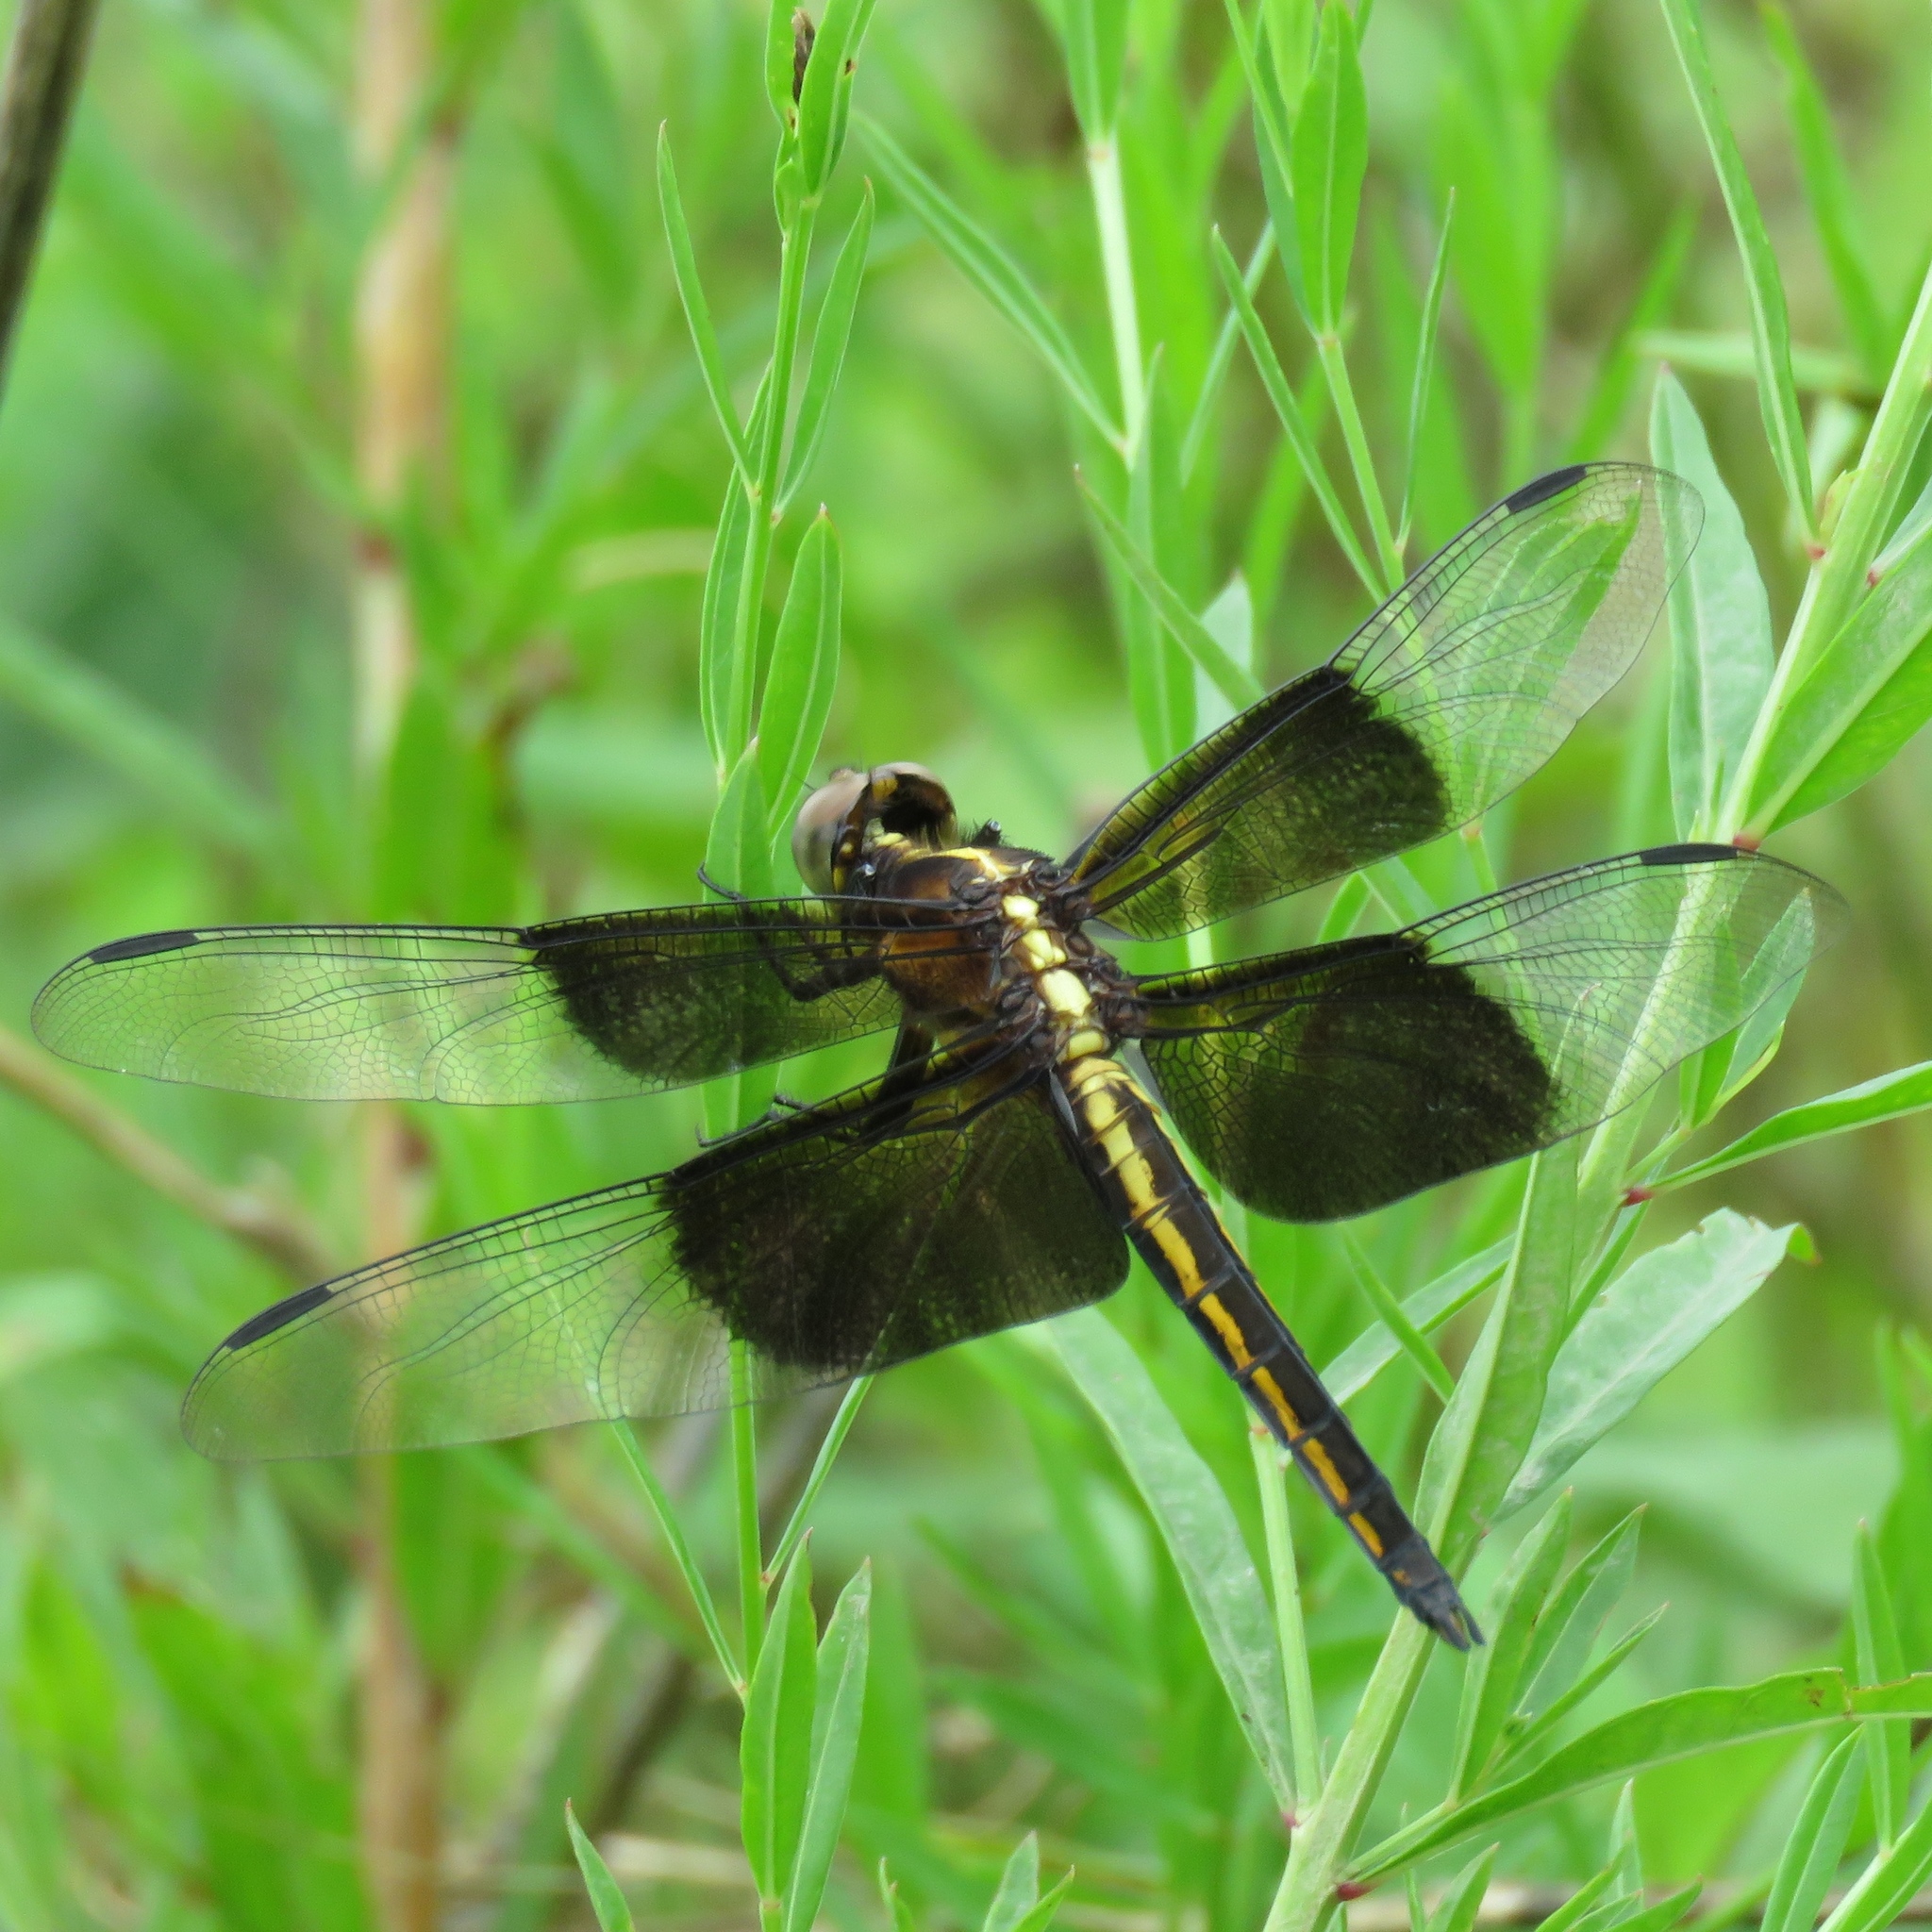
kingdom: Animalia
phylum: Arthropoda
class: Insecta
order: Odonata
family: Libellulidae
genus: Libellula
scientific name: Libellula luctuosa
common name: Widow skimmer
